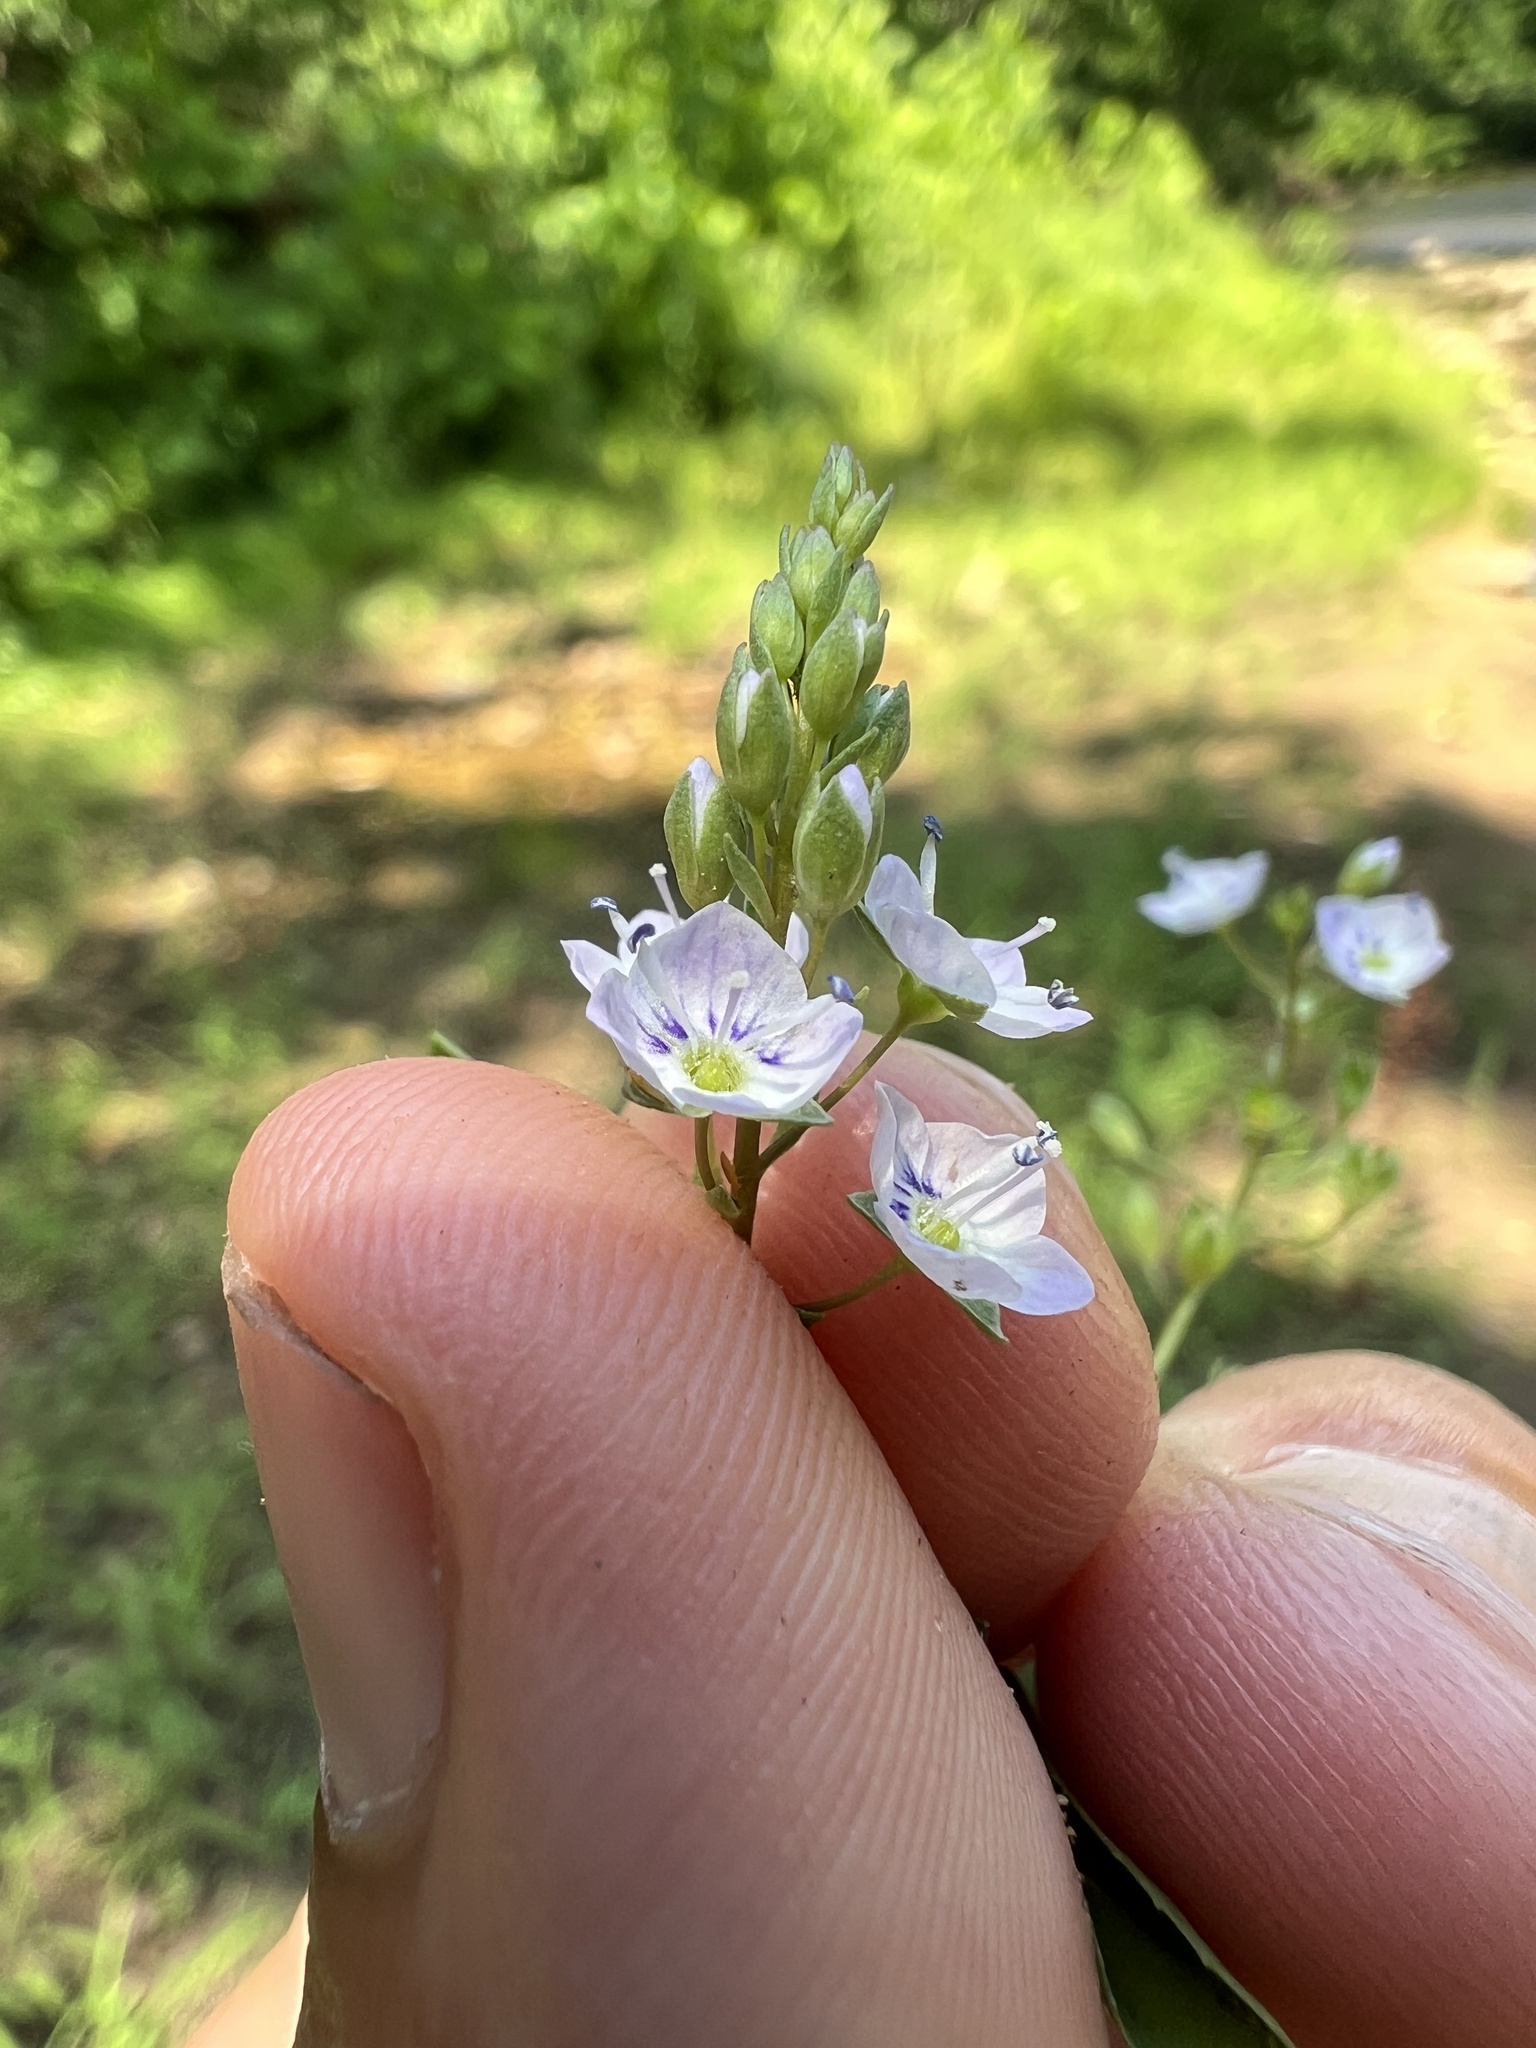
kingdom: Plantae
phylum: Tracheophyta
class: Magnoliopsida
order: Lamiales
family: Plantaginaceae
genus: Veronica
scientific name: Veronica catenata
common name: Pink water-speedwell
